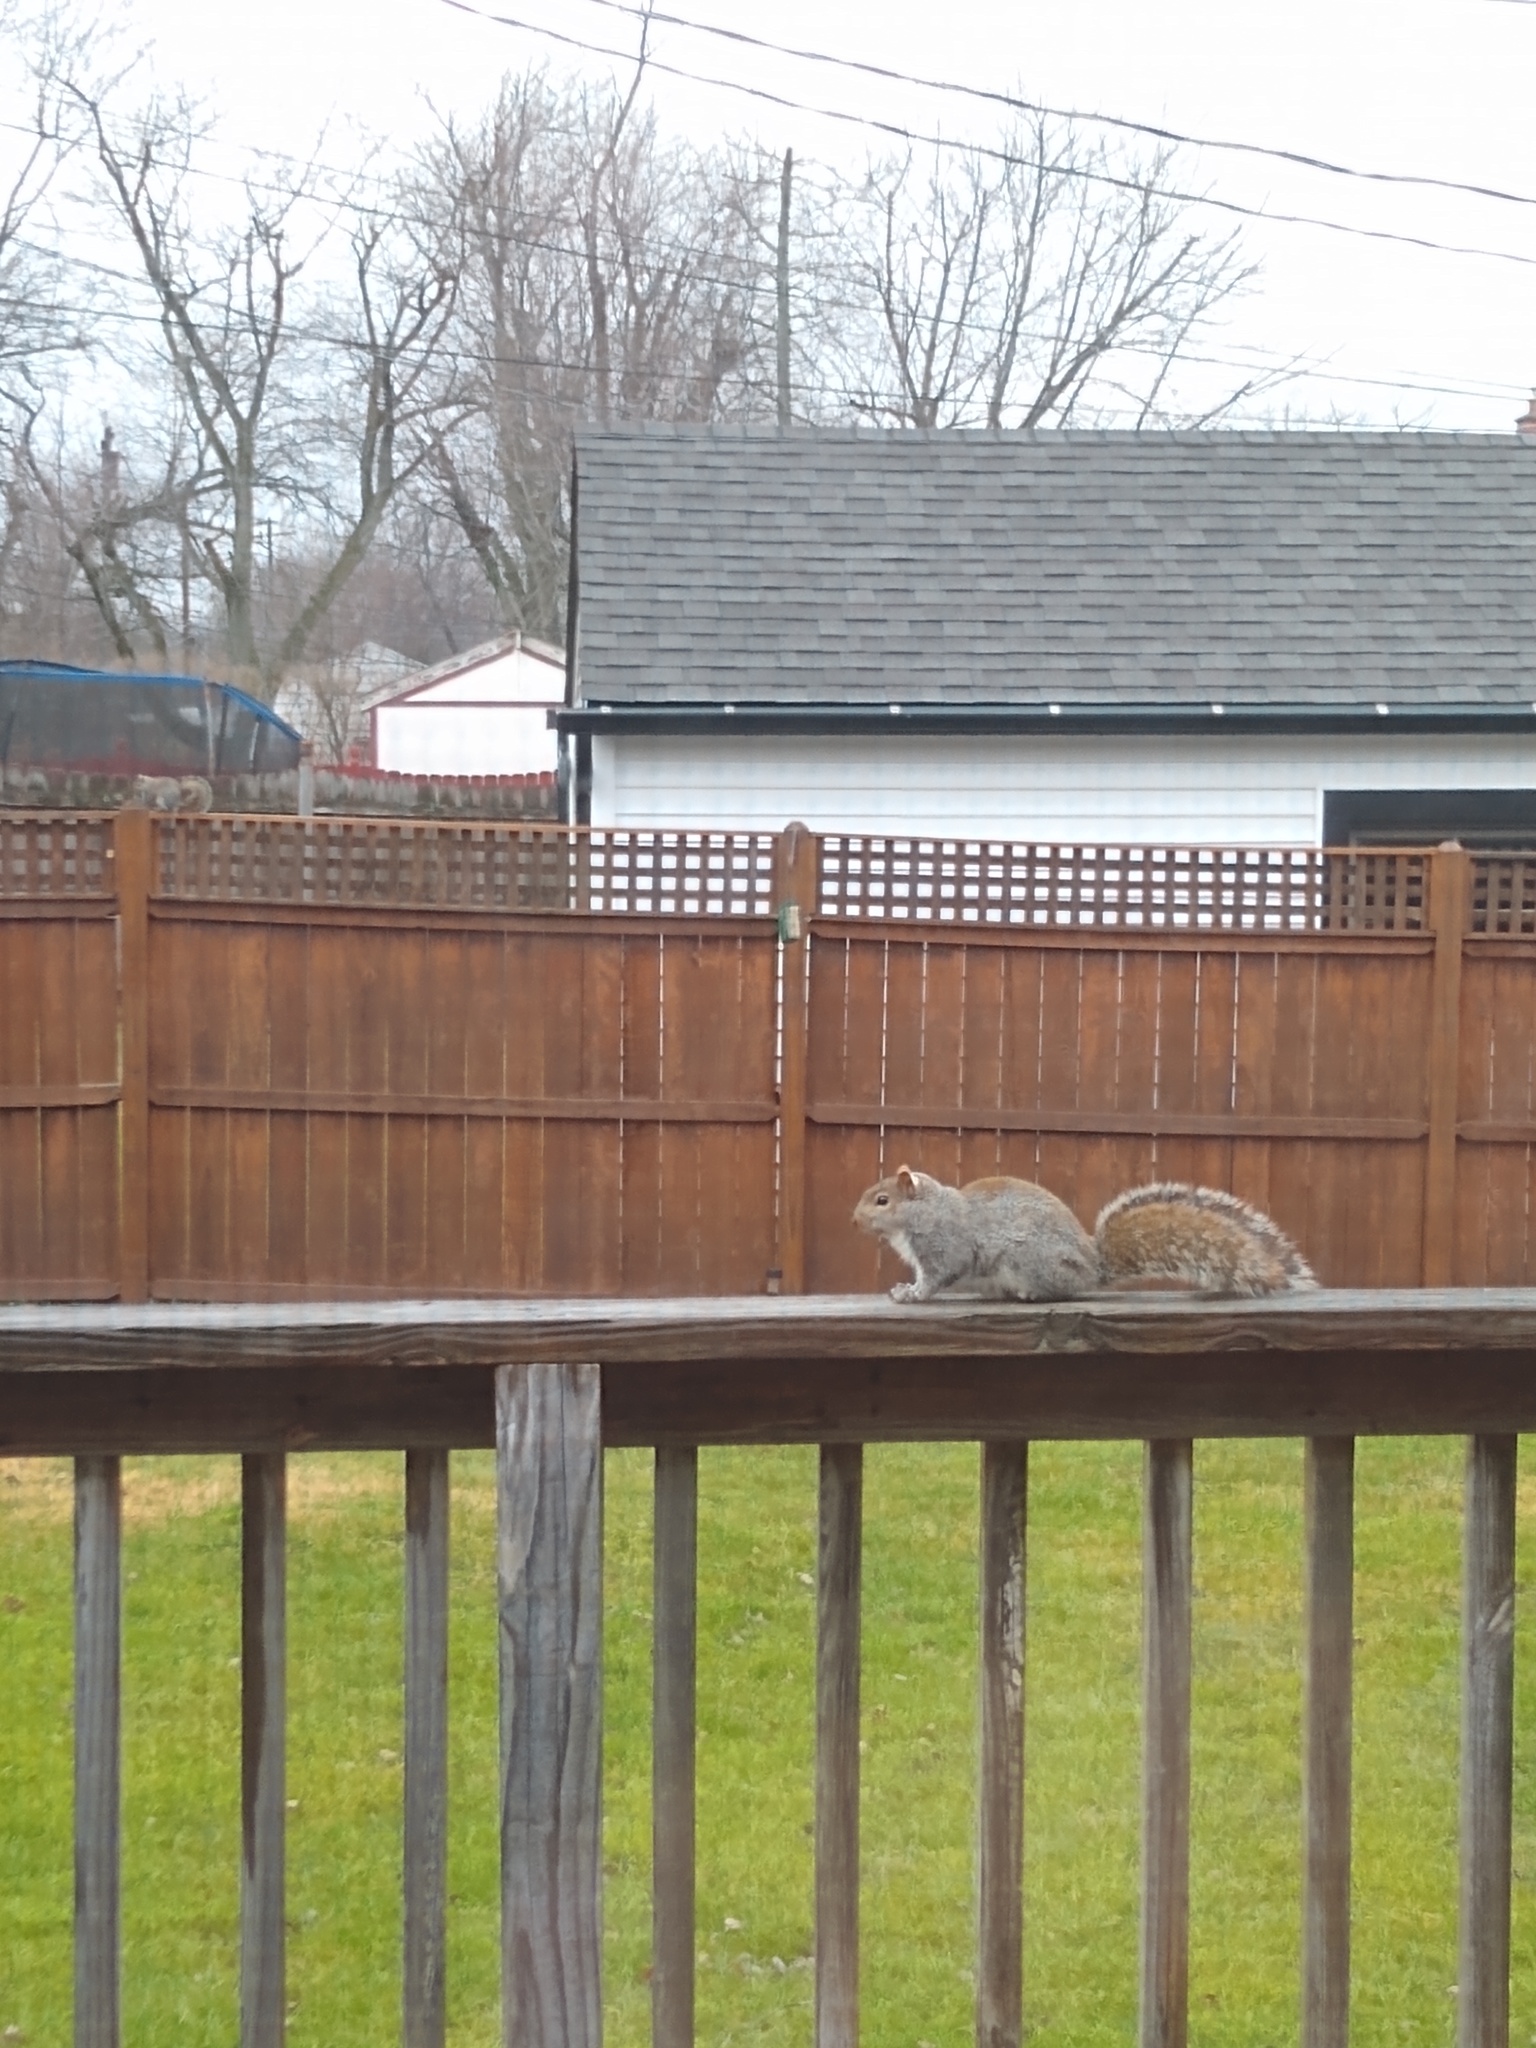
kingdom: Animalia
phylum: Chordata
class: Mammalia
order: Rodentia
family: Sciuridae
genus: Sciurus
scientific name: Sciurus carolinensis
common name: Eastern gray squirrel
